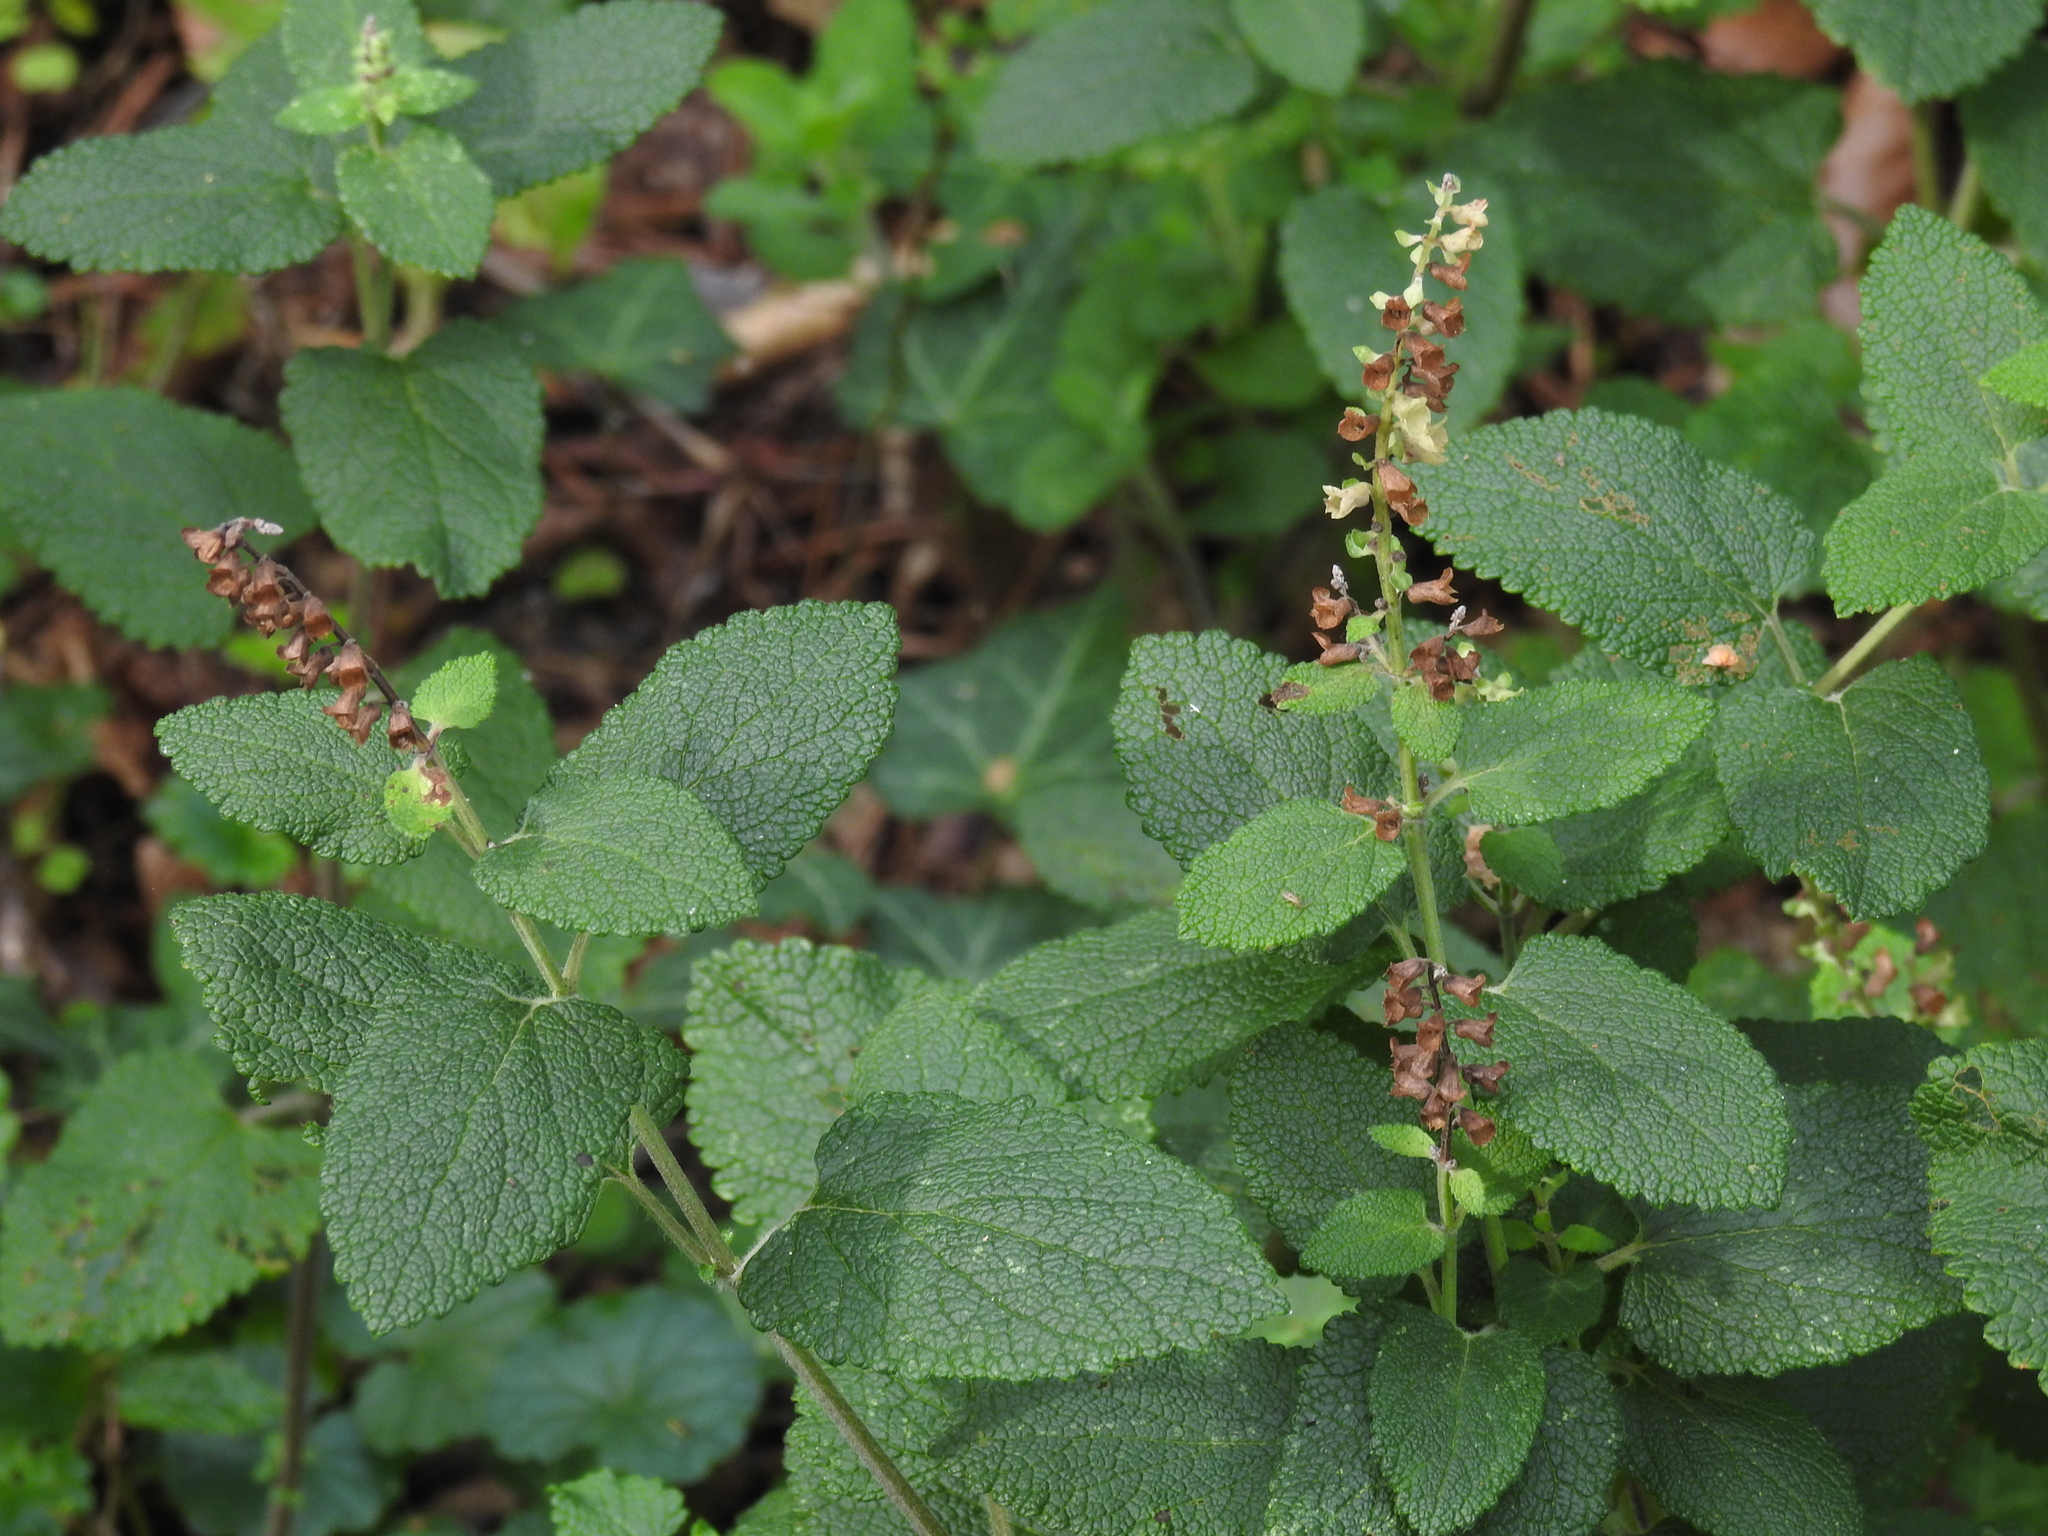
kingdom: Plantae
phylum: Tracheophyta
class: Magnoliopsida
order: Lamiales
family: Lamiaceae
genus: Teucrium
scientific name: Teucrium scorodonia
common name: Woodland germander
